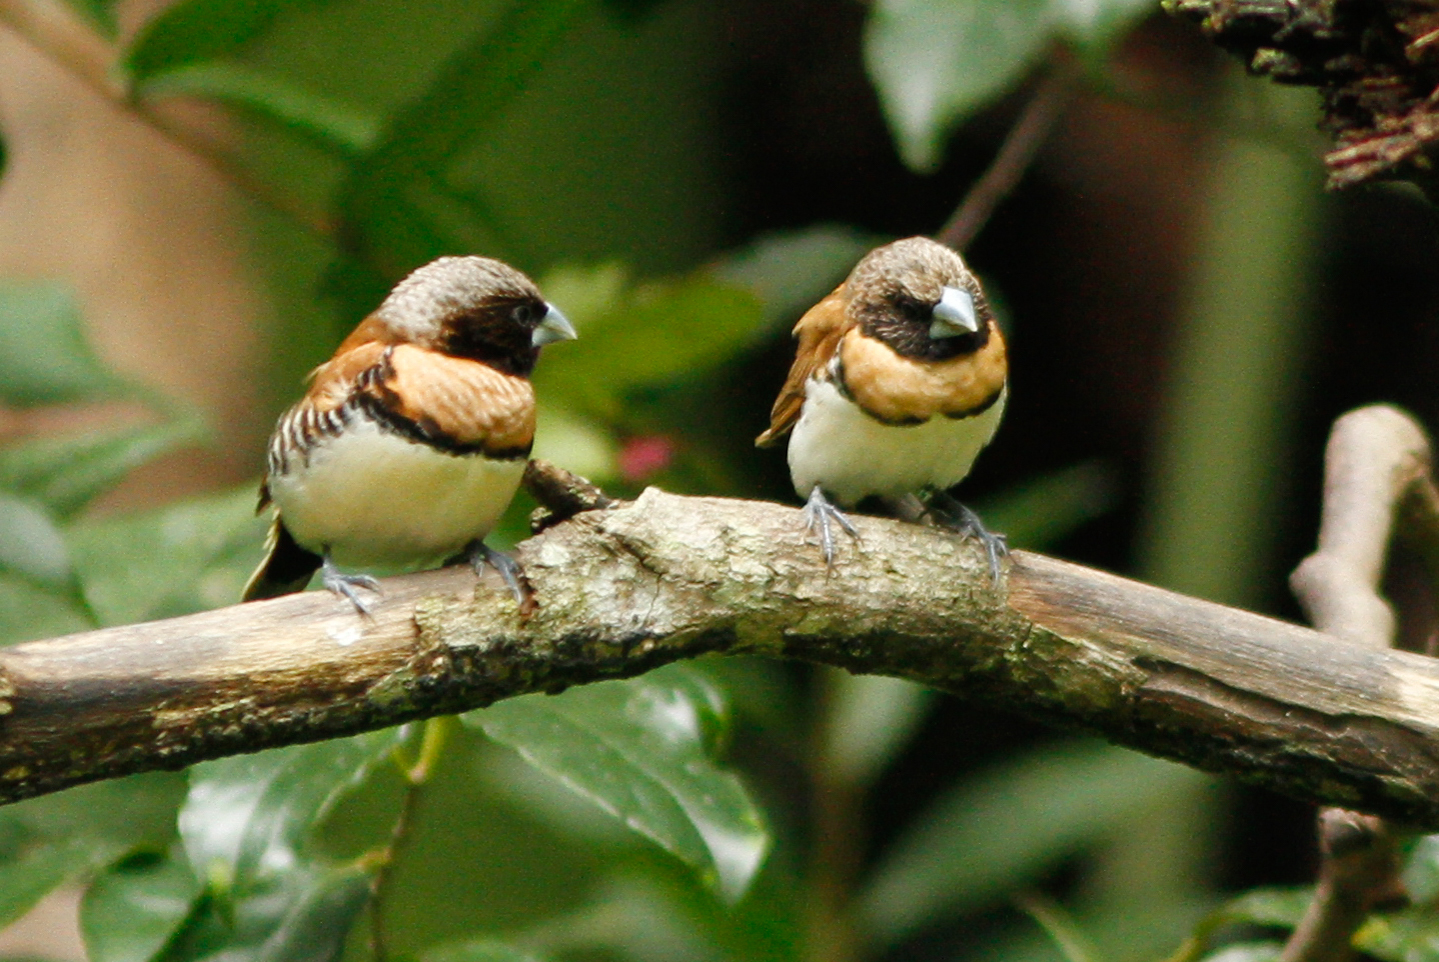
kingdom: Animalia
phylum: Chordata
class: Aves
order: Passeriformes
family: Estrildidae
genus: Lonchura
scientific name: Lonchura castaneothorax
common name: Chestnut-breasted mannikin
